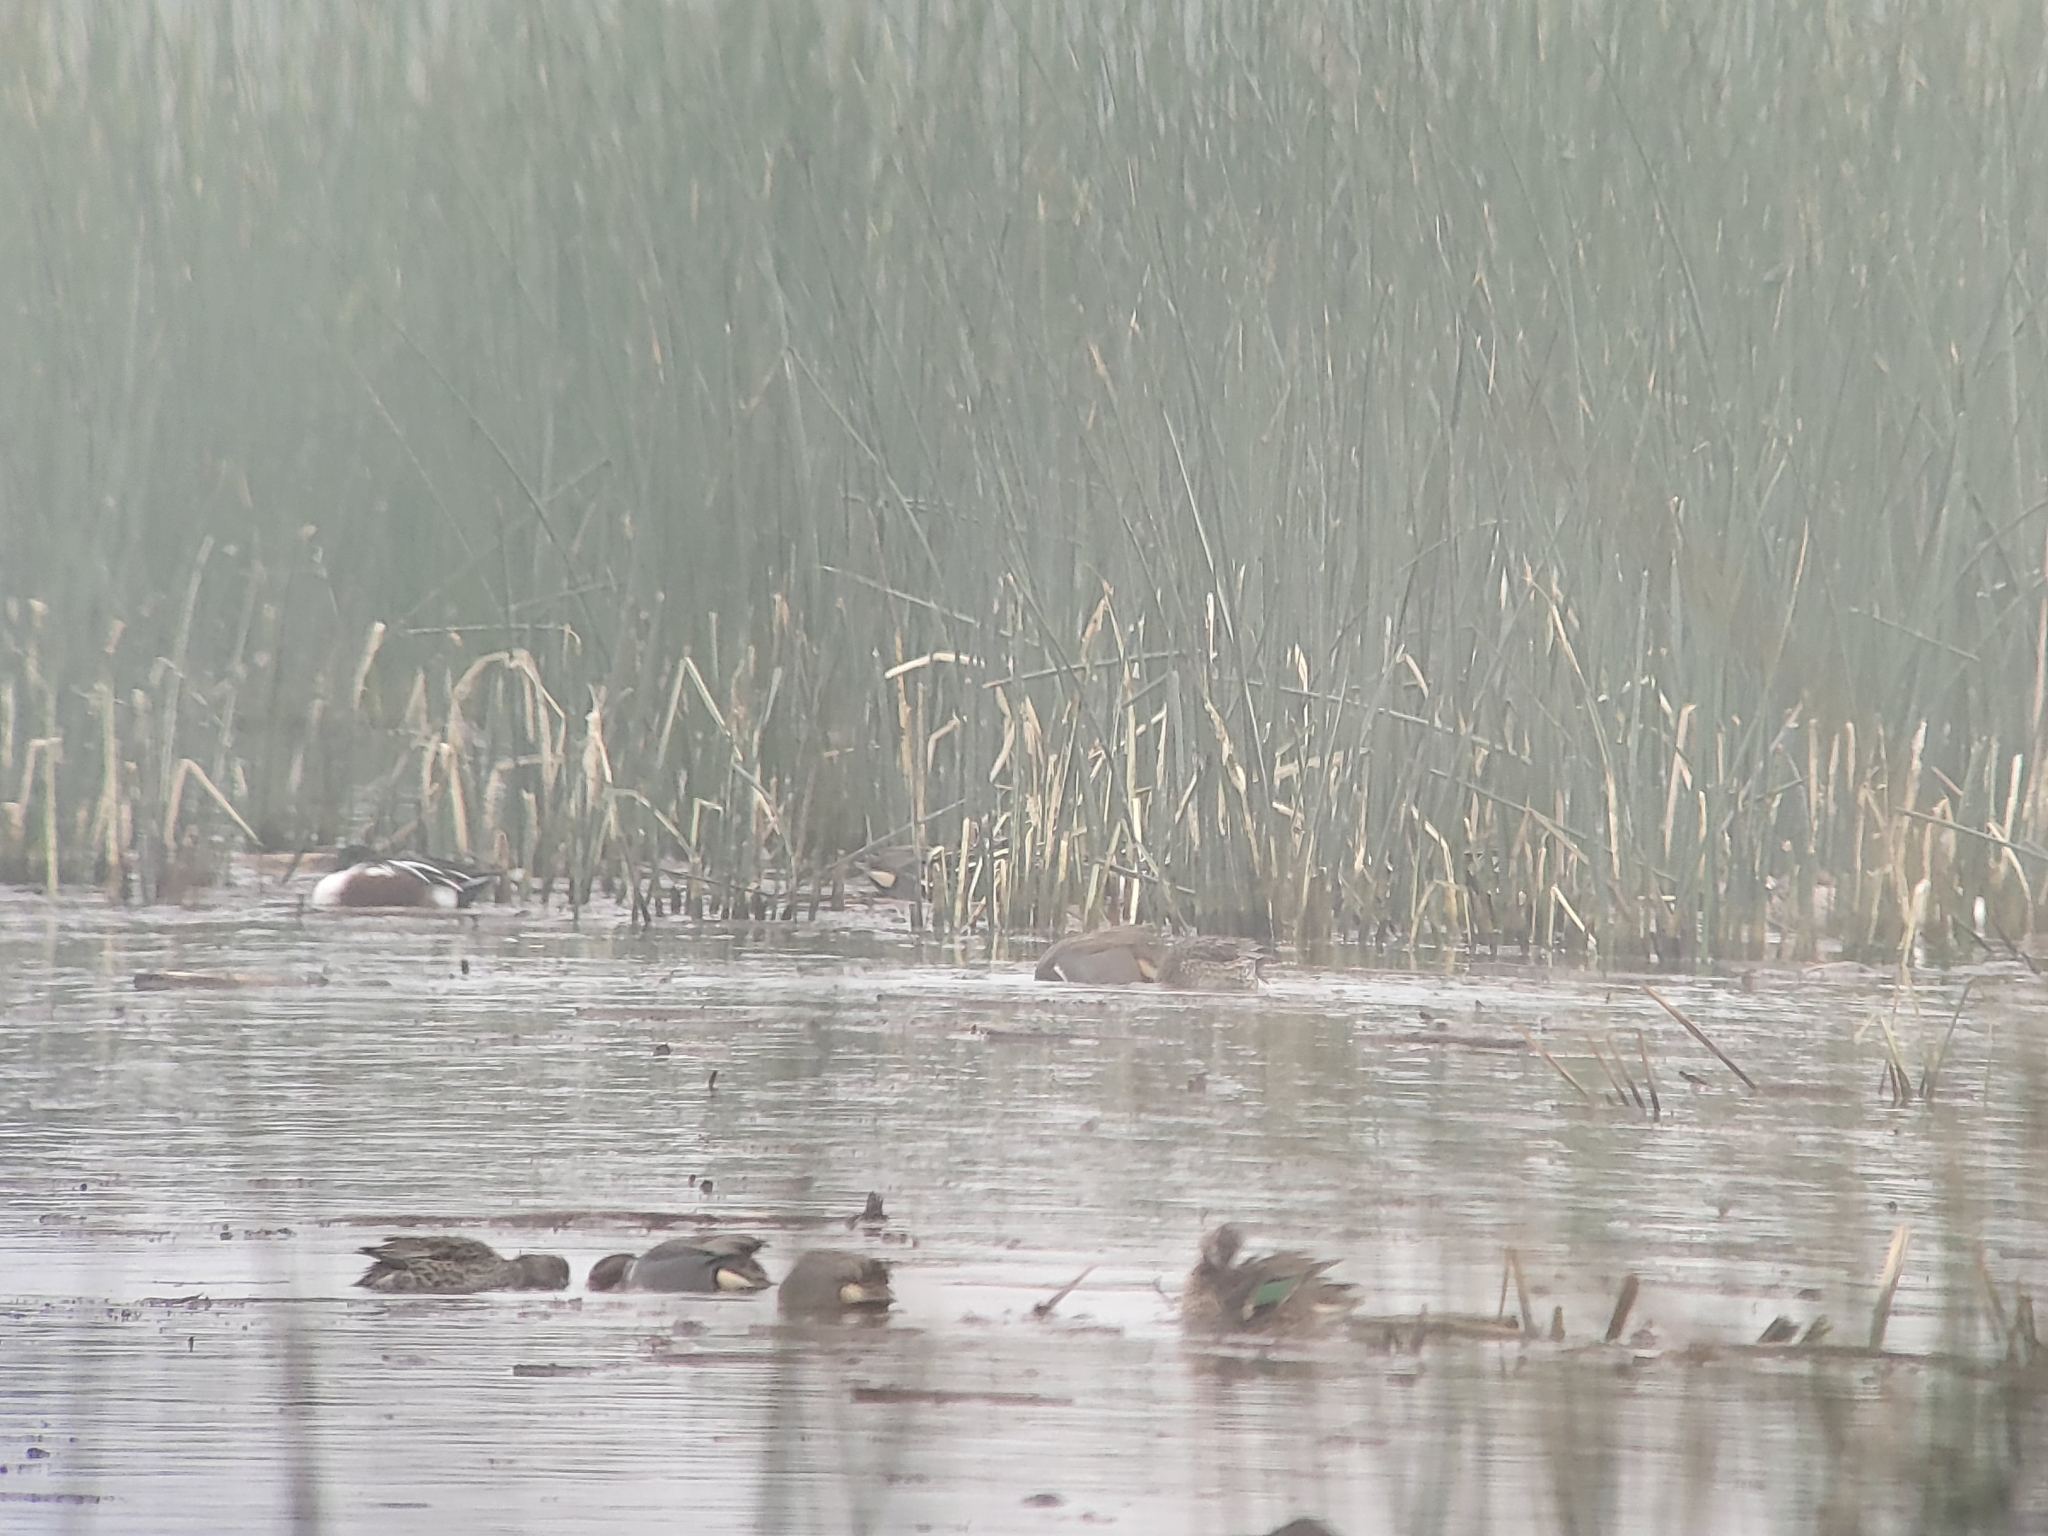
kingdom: Animalia
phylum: Chordata
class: Aves
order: Anseriformes
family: Anatidae
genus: Anas
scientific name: Anas crecca
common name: Eurasian teal
